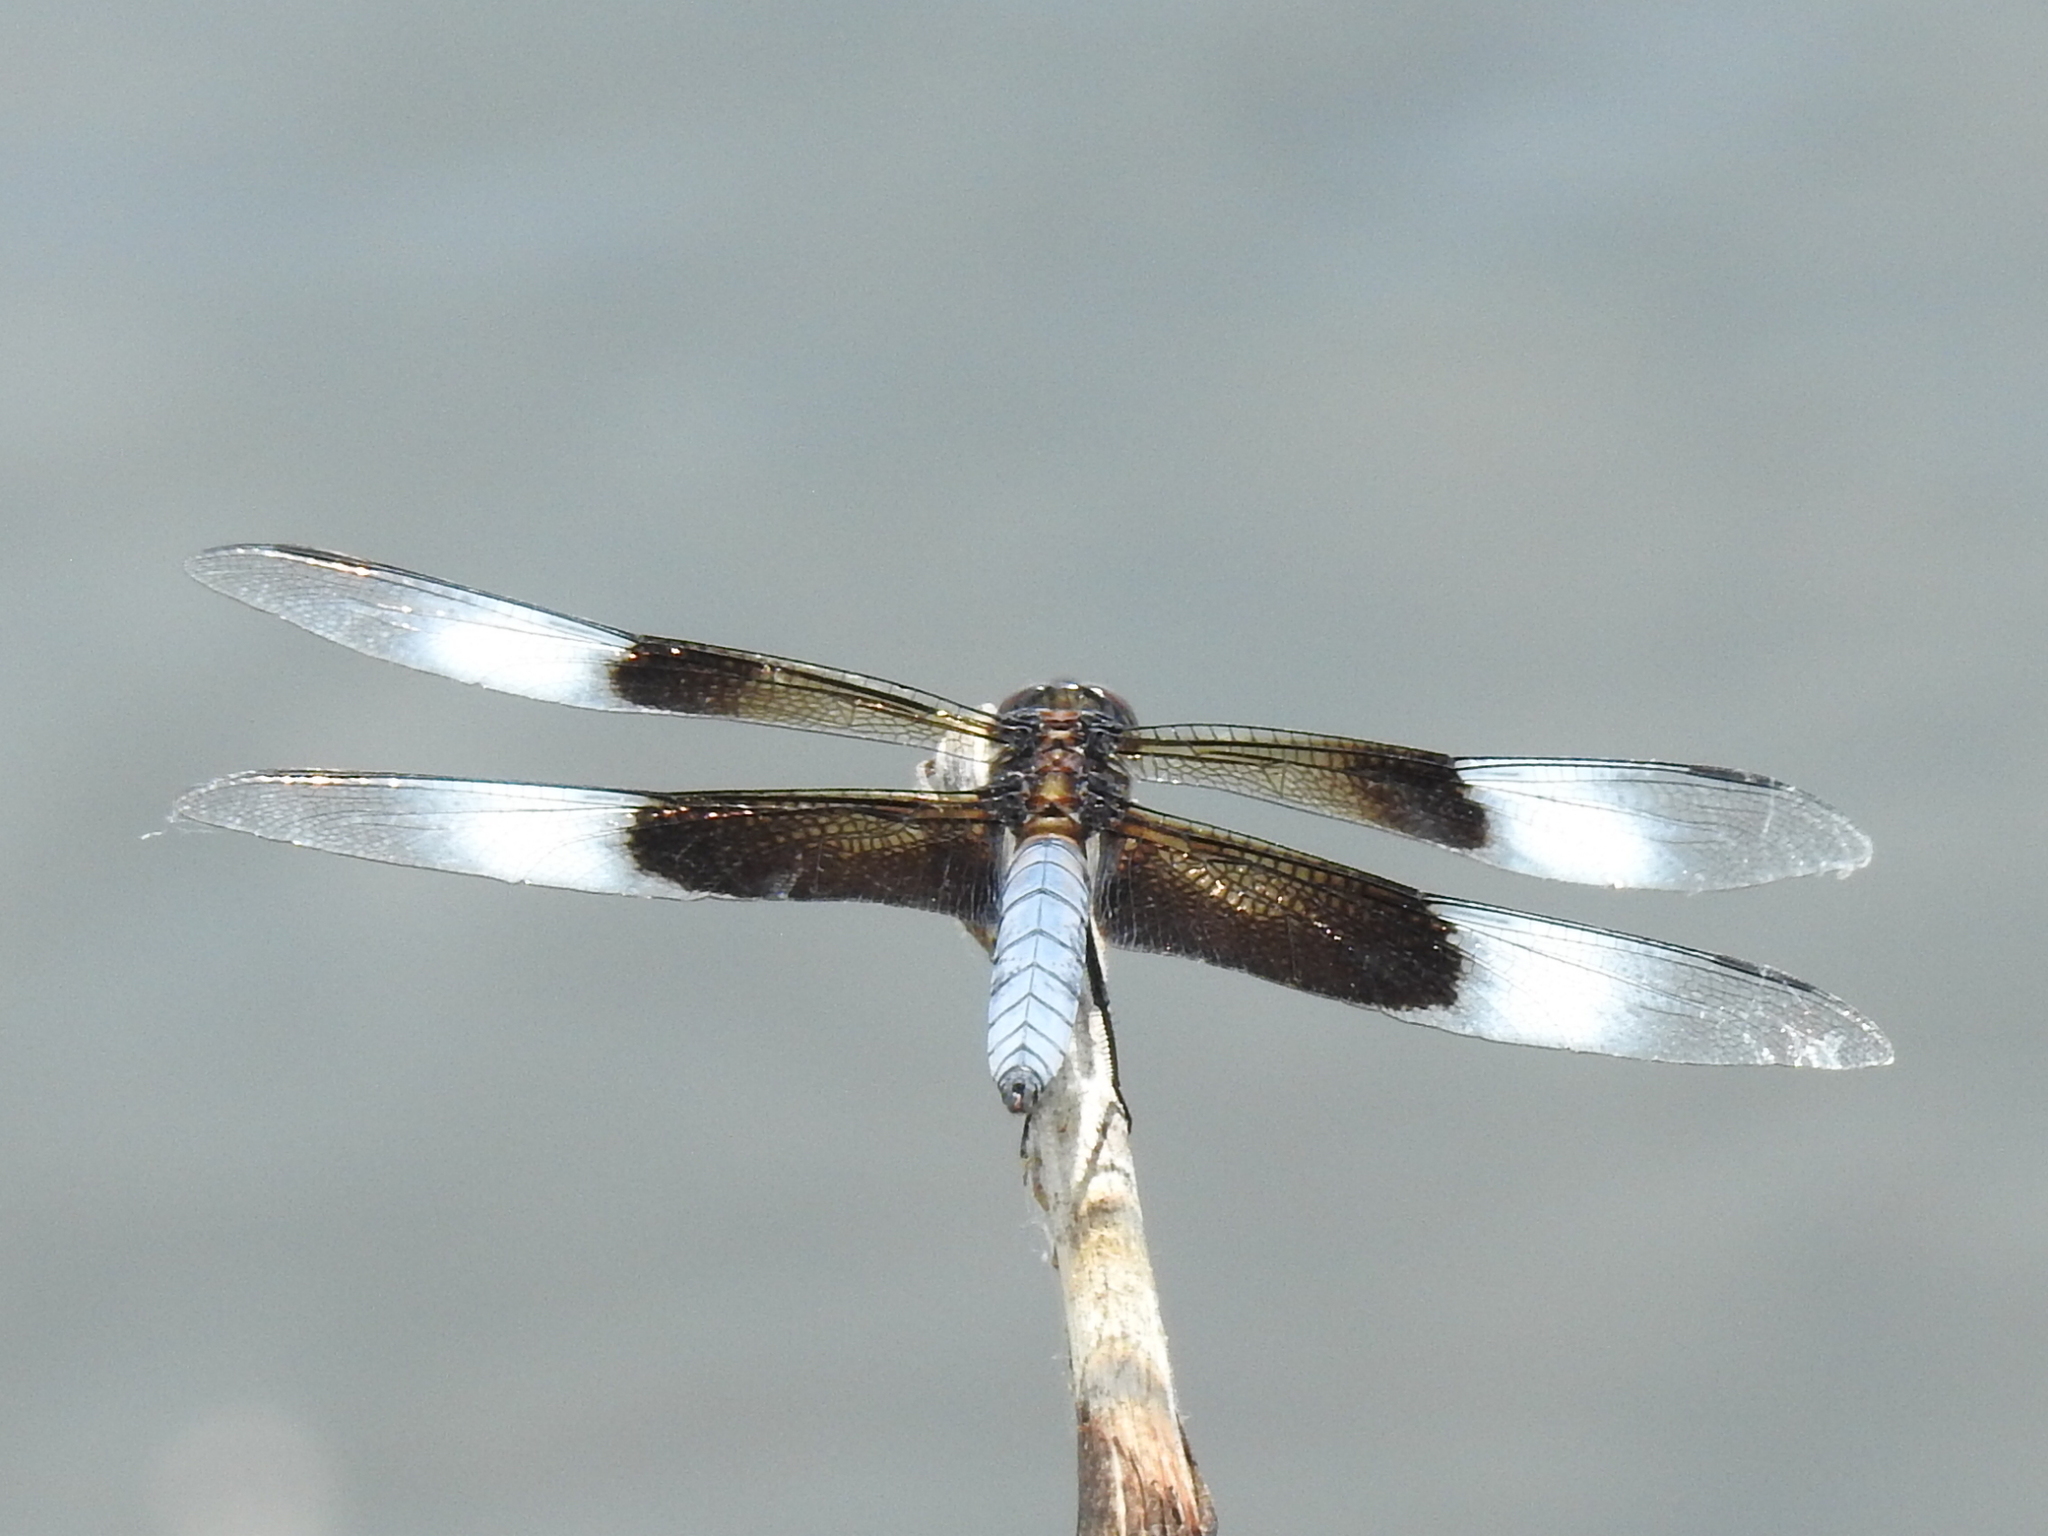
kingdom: Animalia
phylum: Arthropoda
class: Insecta
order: Odonata
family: Libellulidae
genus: Libellula
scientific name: Libellula luctuosa
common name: Widow skimmer
